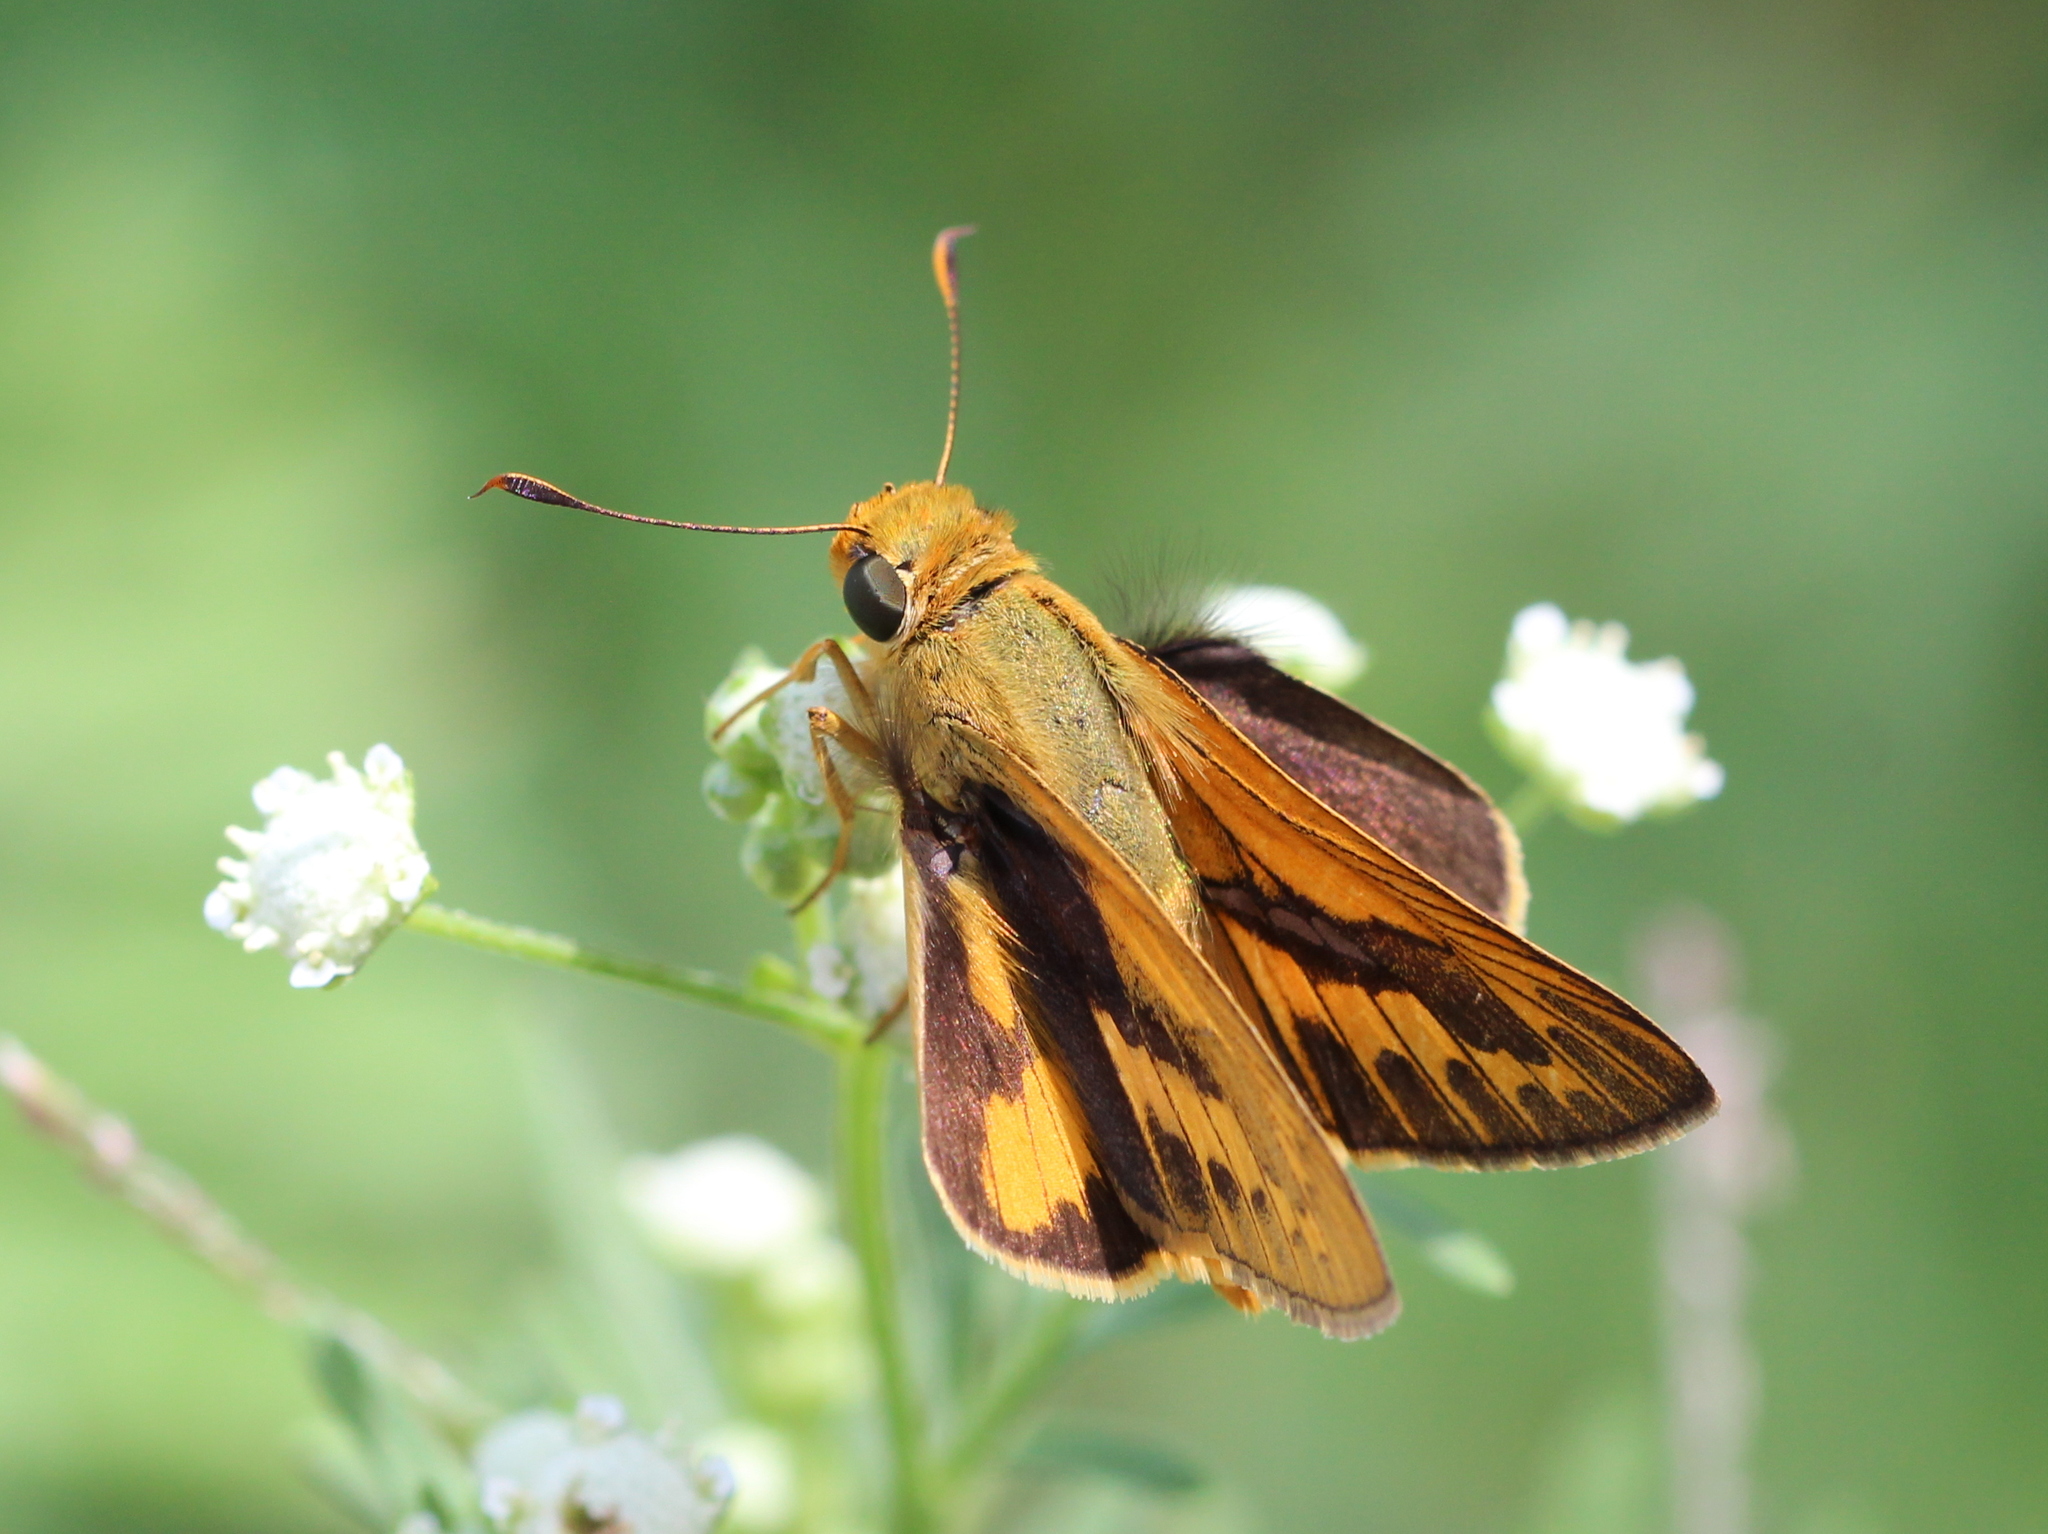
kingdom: Animalia
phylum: Arthropoda
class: Insecta
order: Lepidoptera
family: Hesperiidae
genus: Telicota
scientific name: Telicota colon
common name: Pale palm dart
